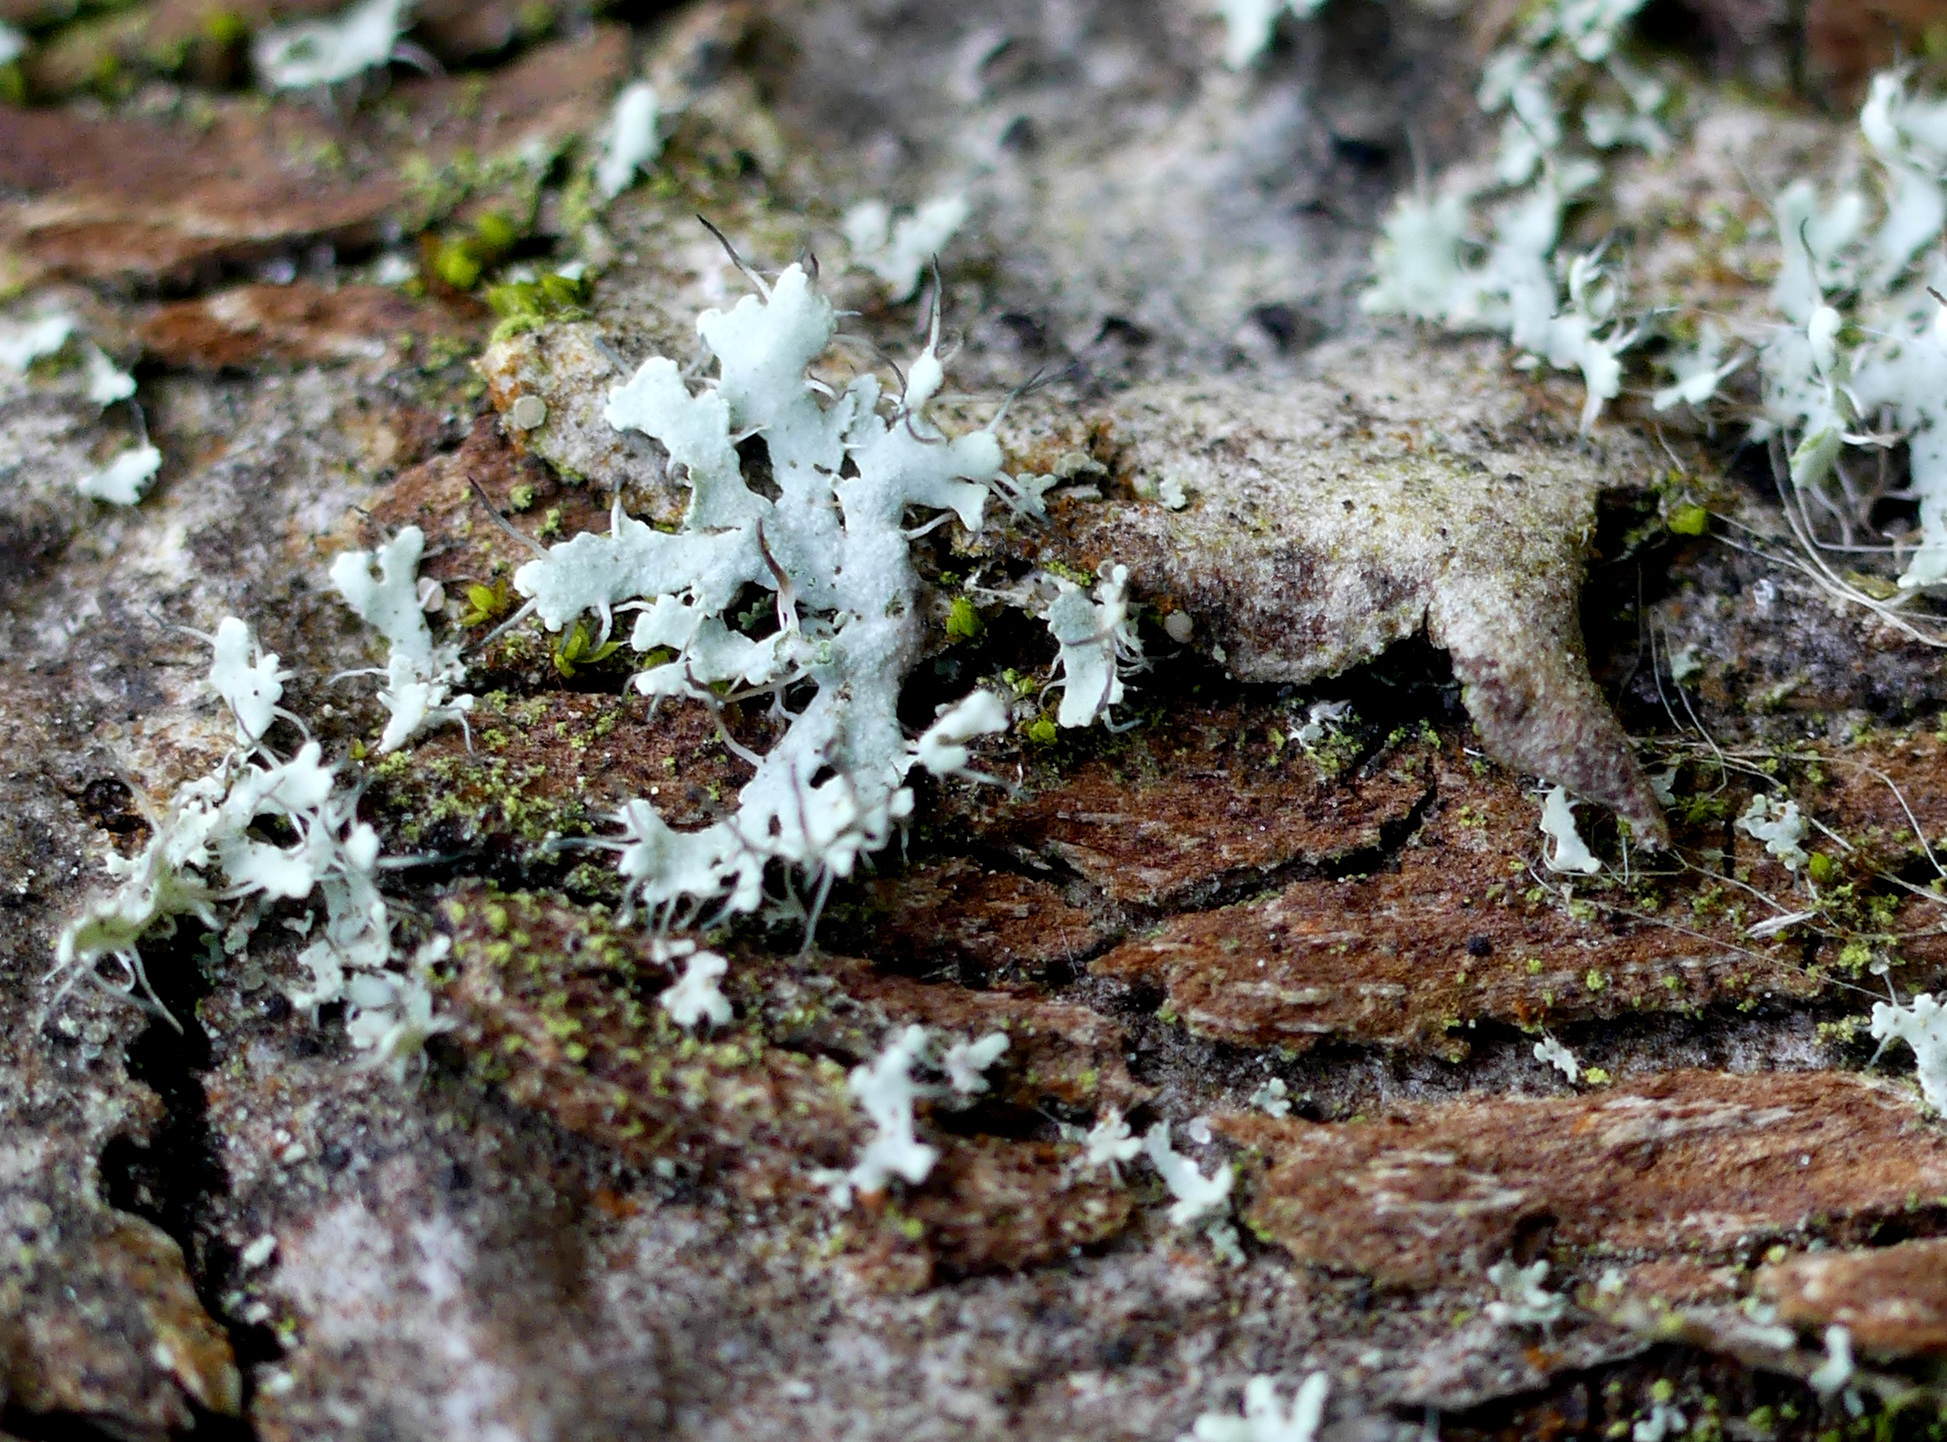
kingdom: Fungi
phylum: Ascomycota
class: Lecanoromycetes
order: Caliciales
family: Physciaceae
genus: Physcia
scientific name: Physcia adscendens
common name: Hooded rosette lichen
